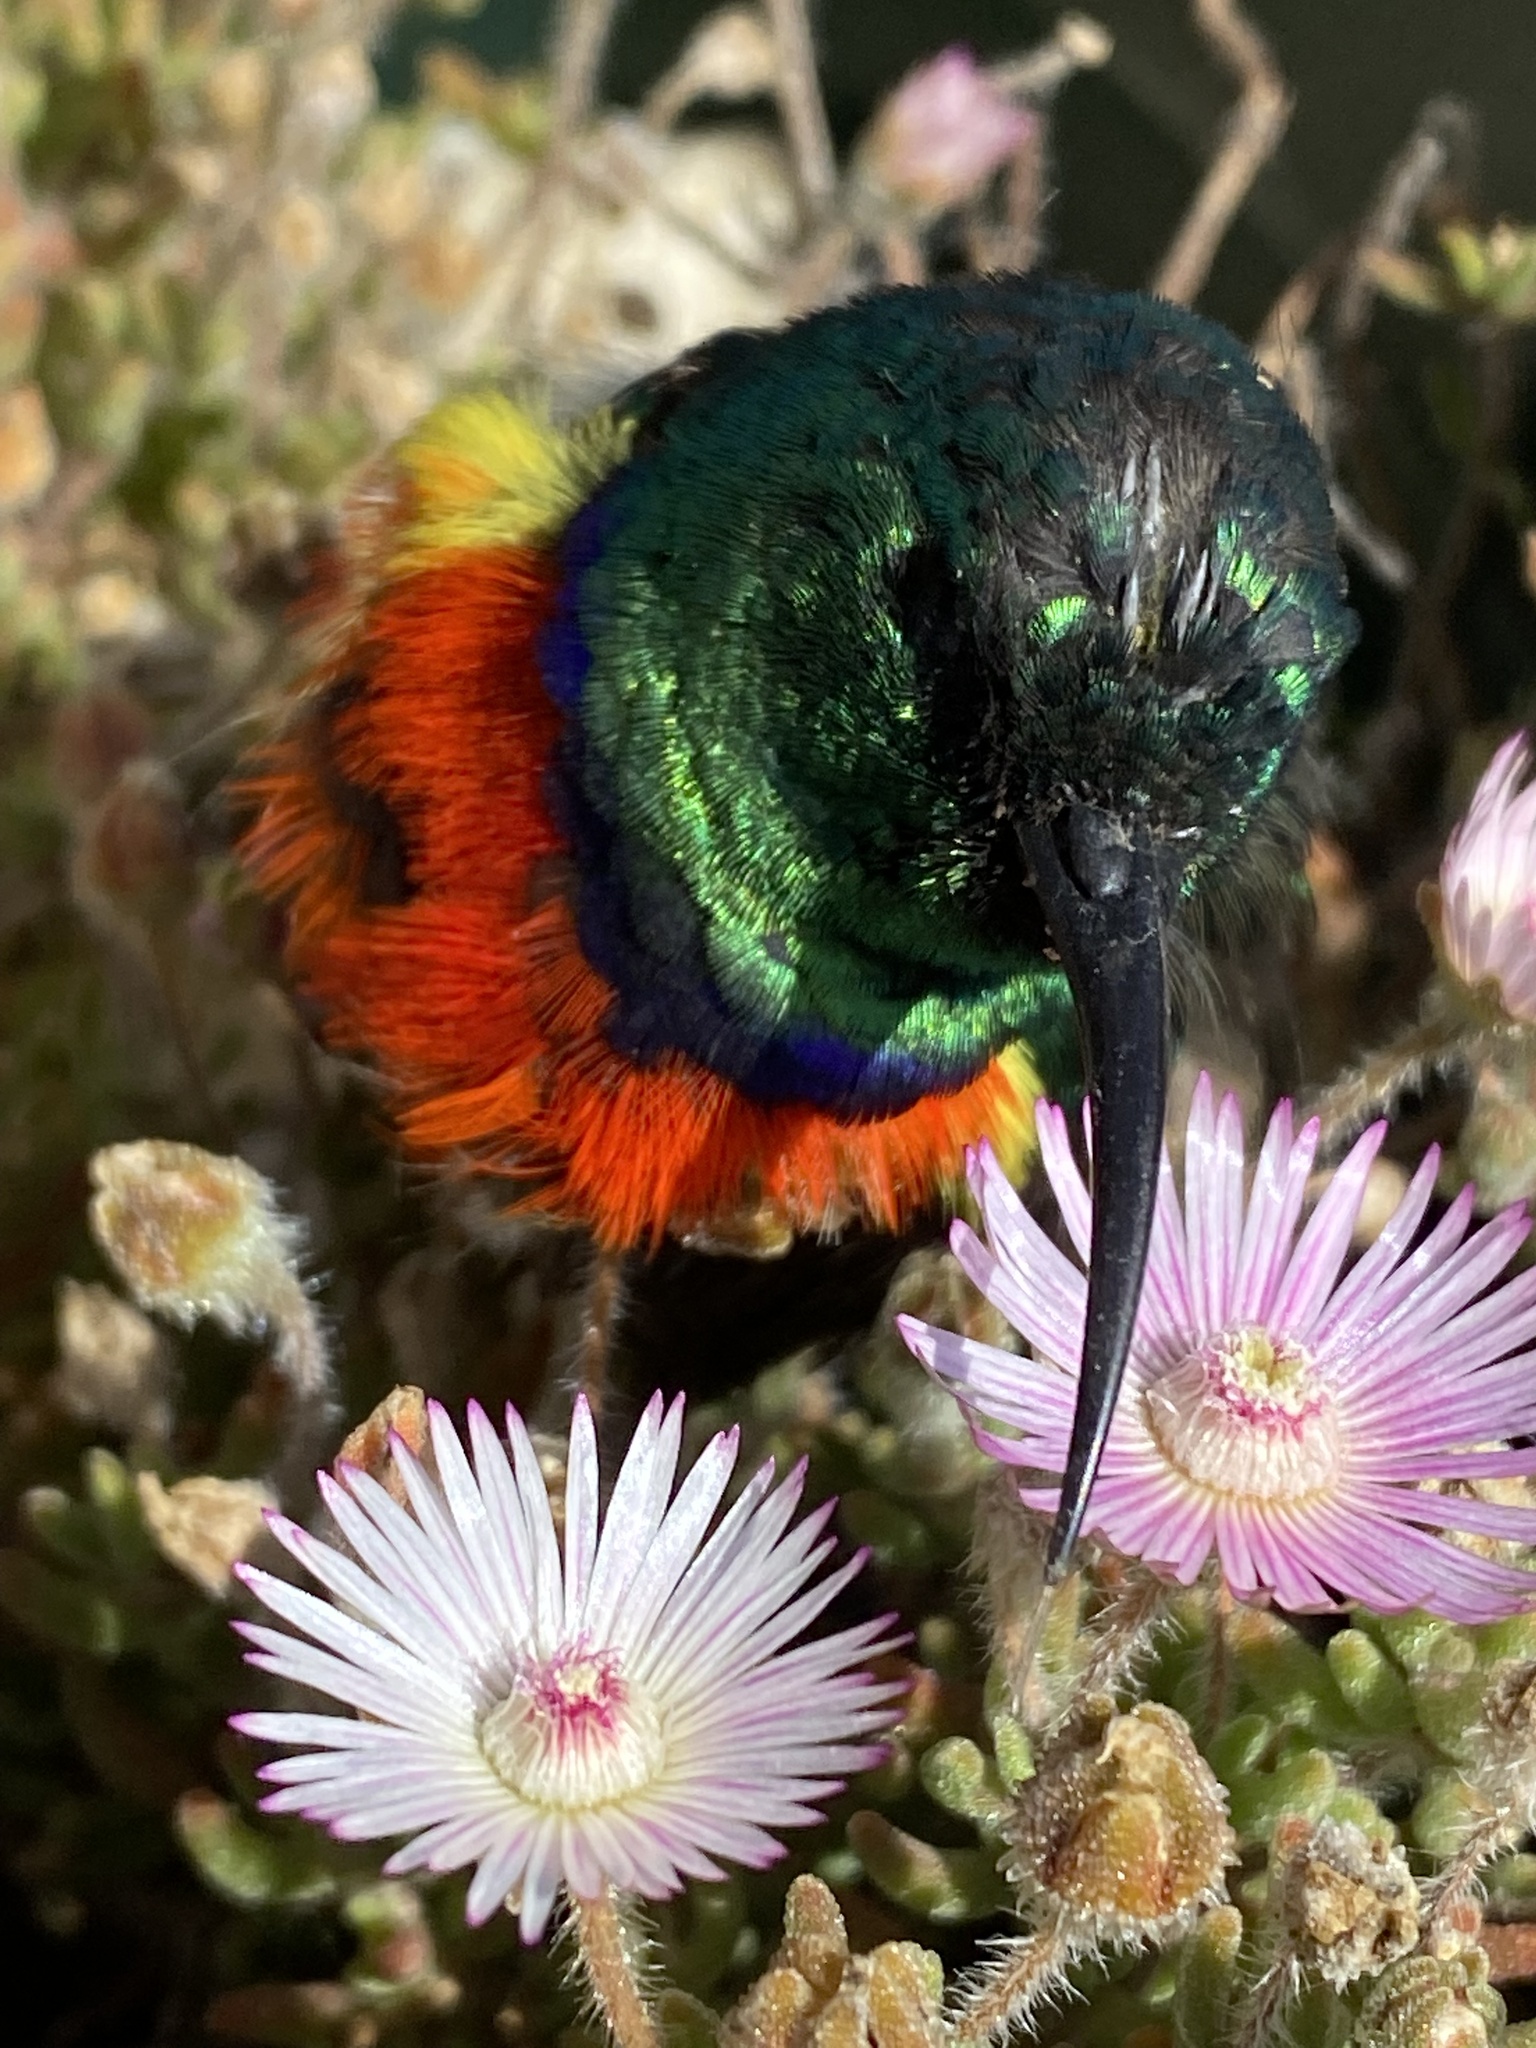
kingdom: Animalia
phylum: Chordata
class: Aves
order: Passeriformes
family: Nectariniidae
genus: Cinnyris
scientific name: Cinnyris afer
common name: Greater double-collared sunbird
